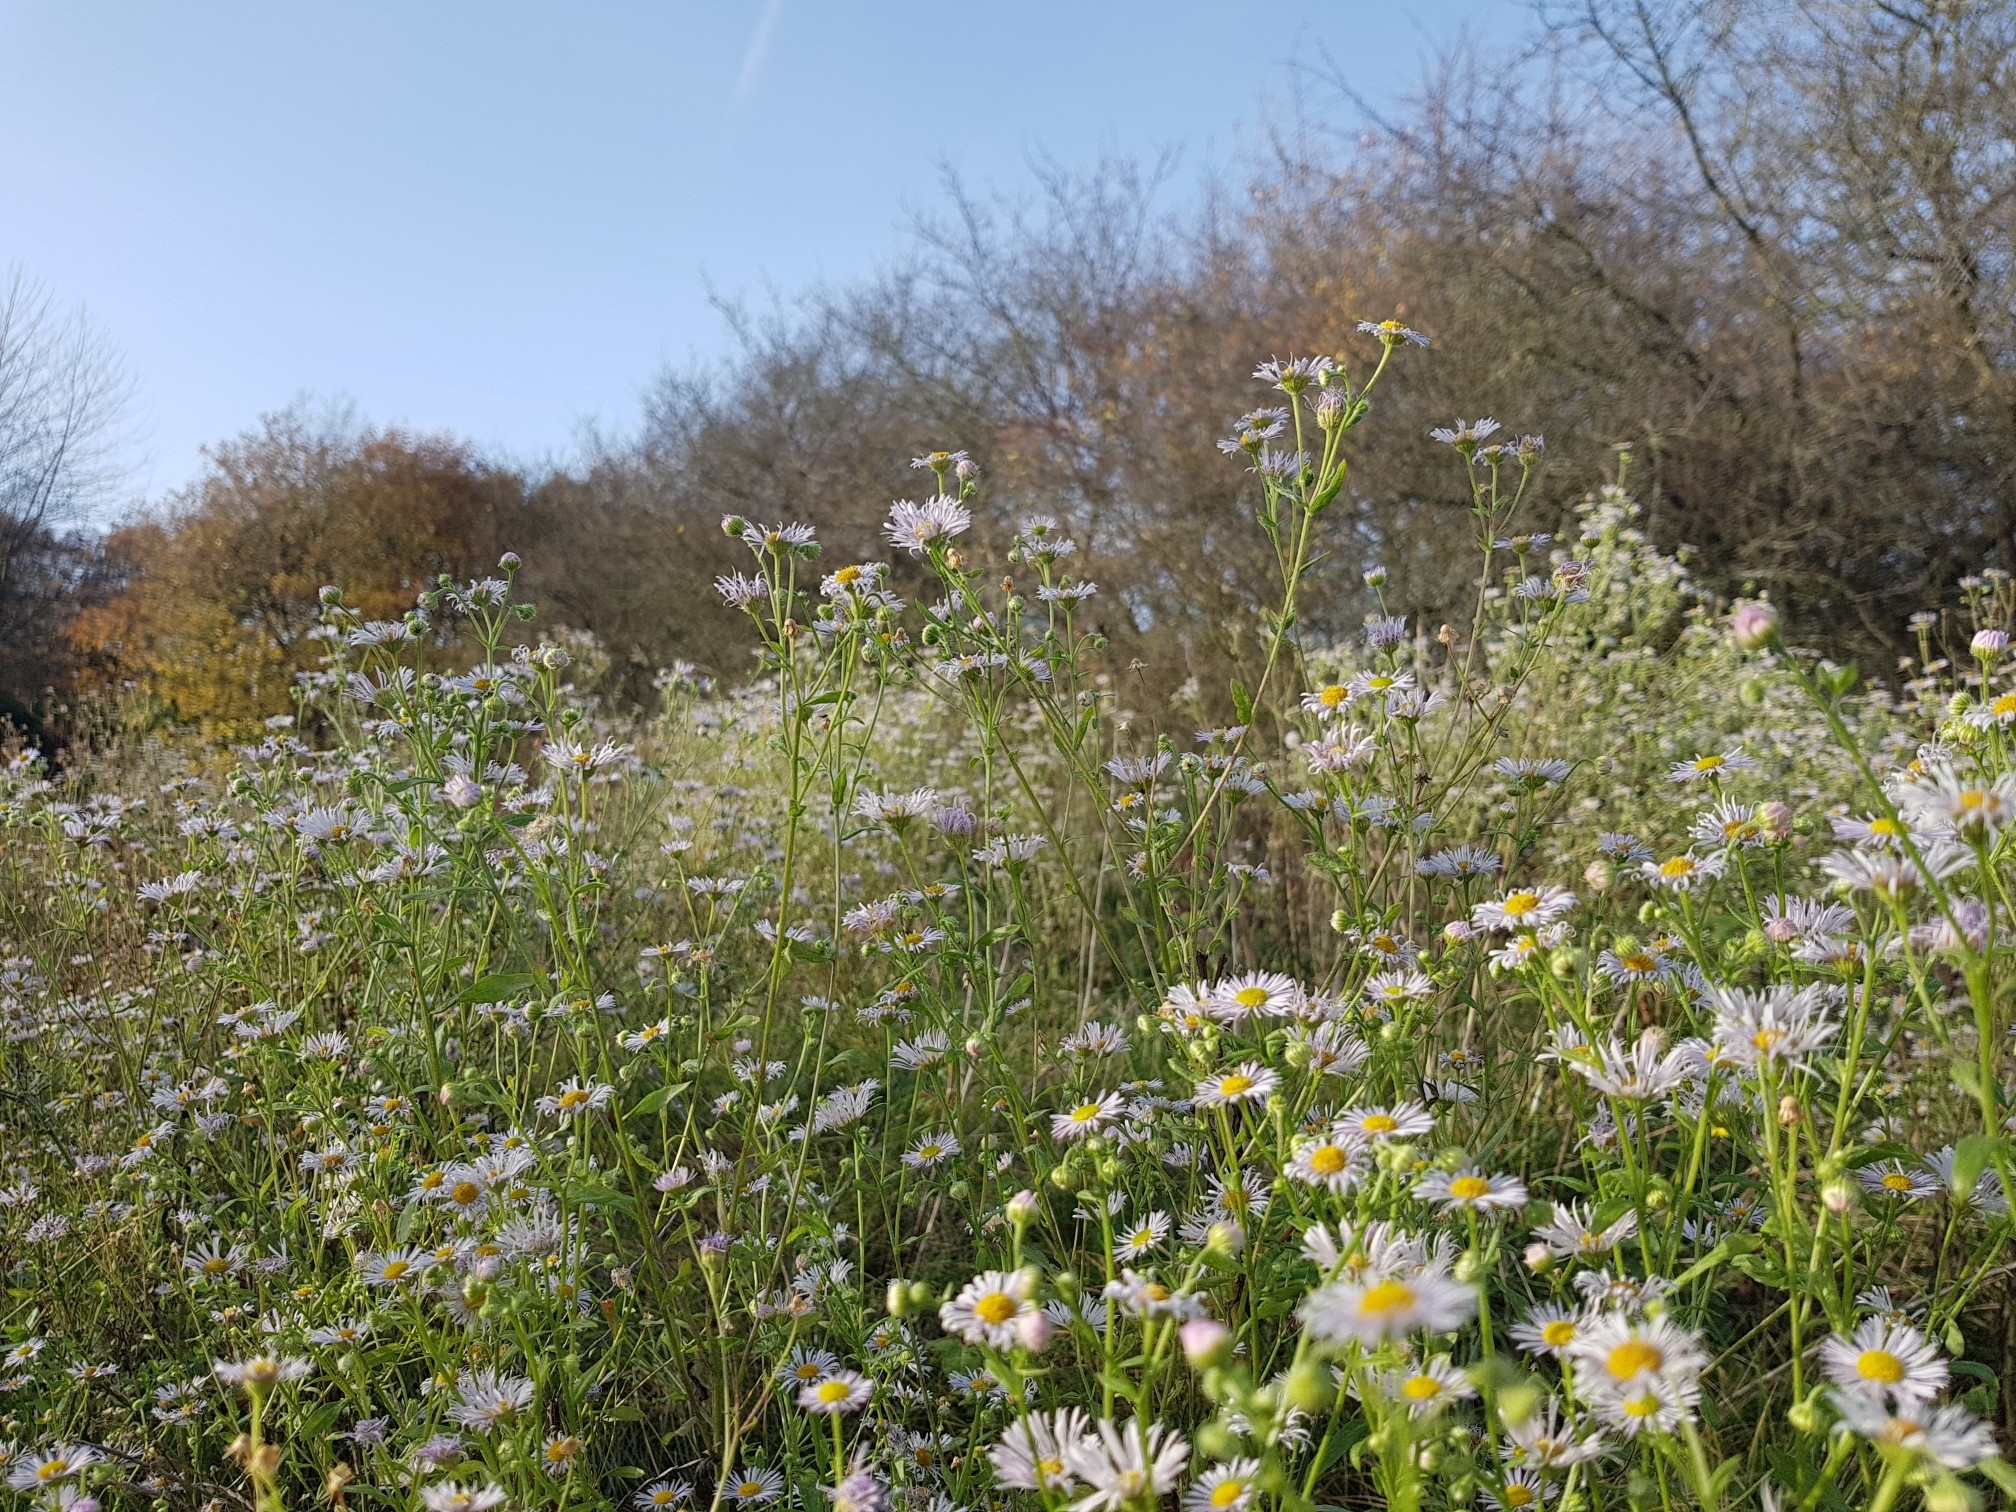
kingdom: Plantae
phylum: Tracheophyta
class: Magnoliopsida
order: Asterales
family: Asteraceae
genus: Erigeron
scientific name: Erigeron annuus
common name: Tall fleabane
